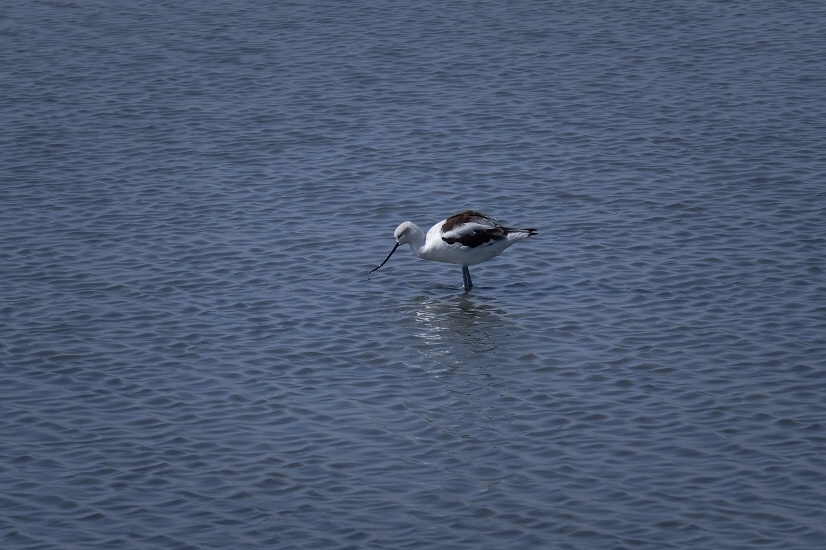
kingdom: Animalia
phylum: Chordata
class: Aves
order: Charadriiformes
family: Recurvirostridae
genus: Recurvirostra
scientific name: Recurvirostra americana
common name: American avocet
